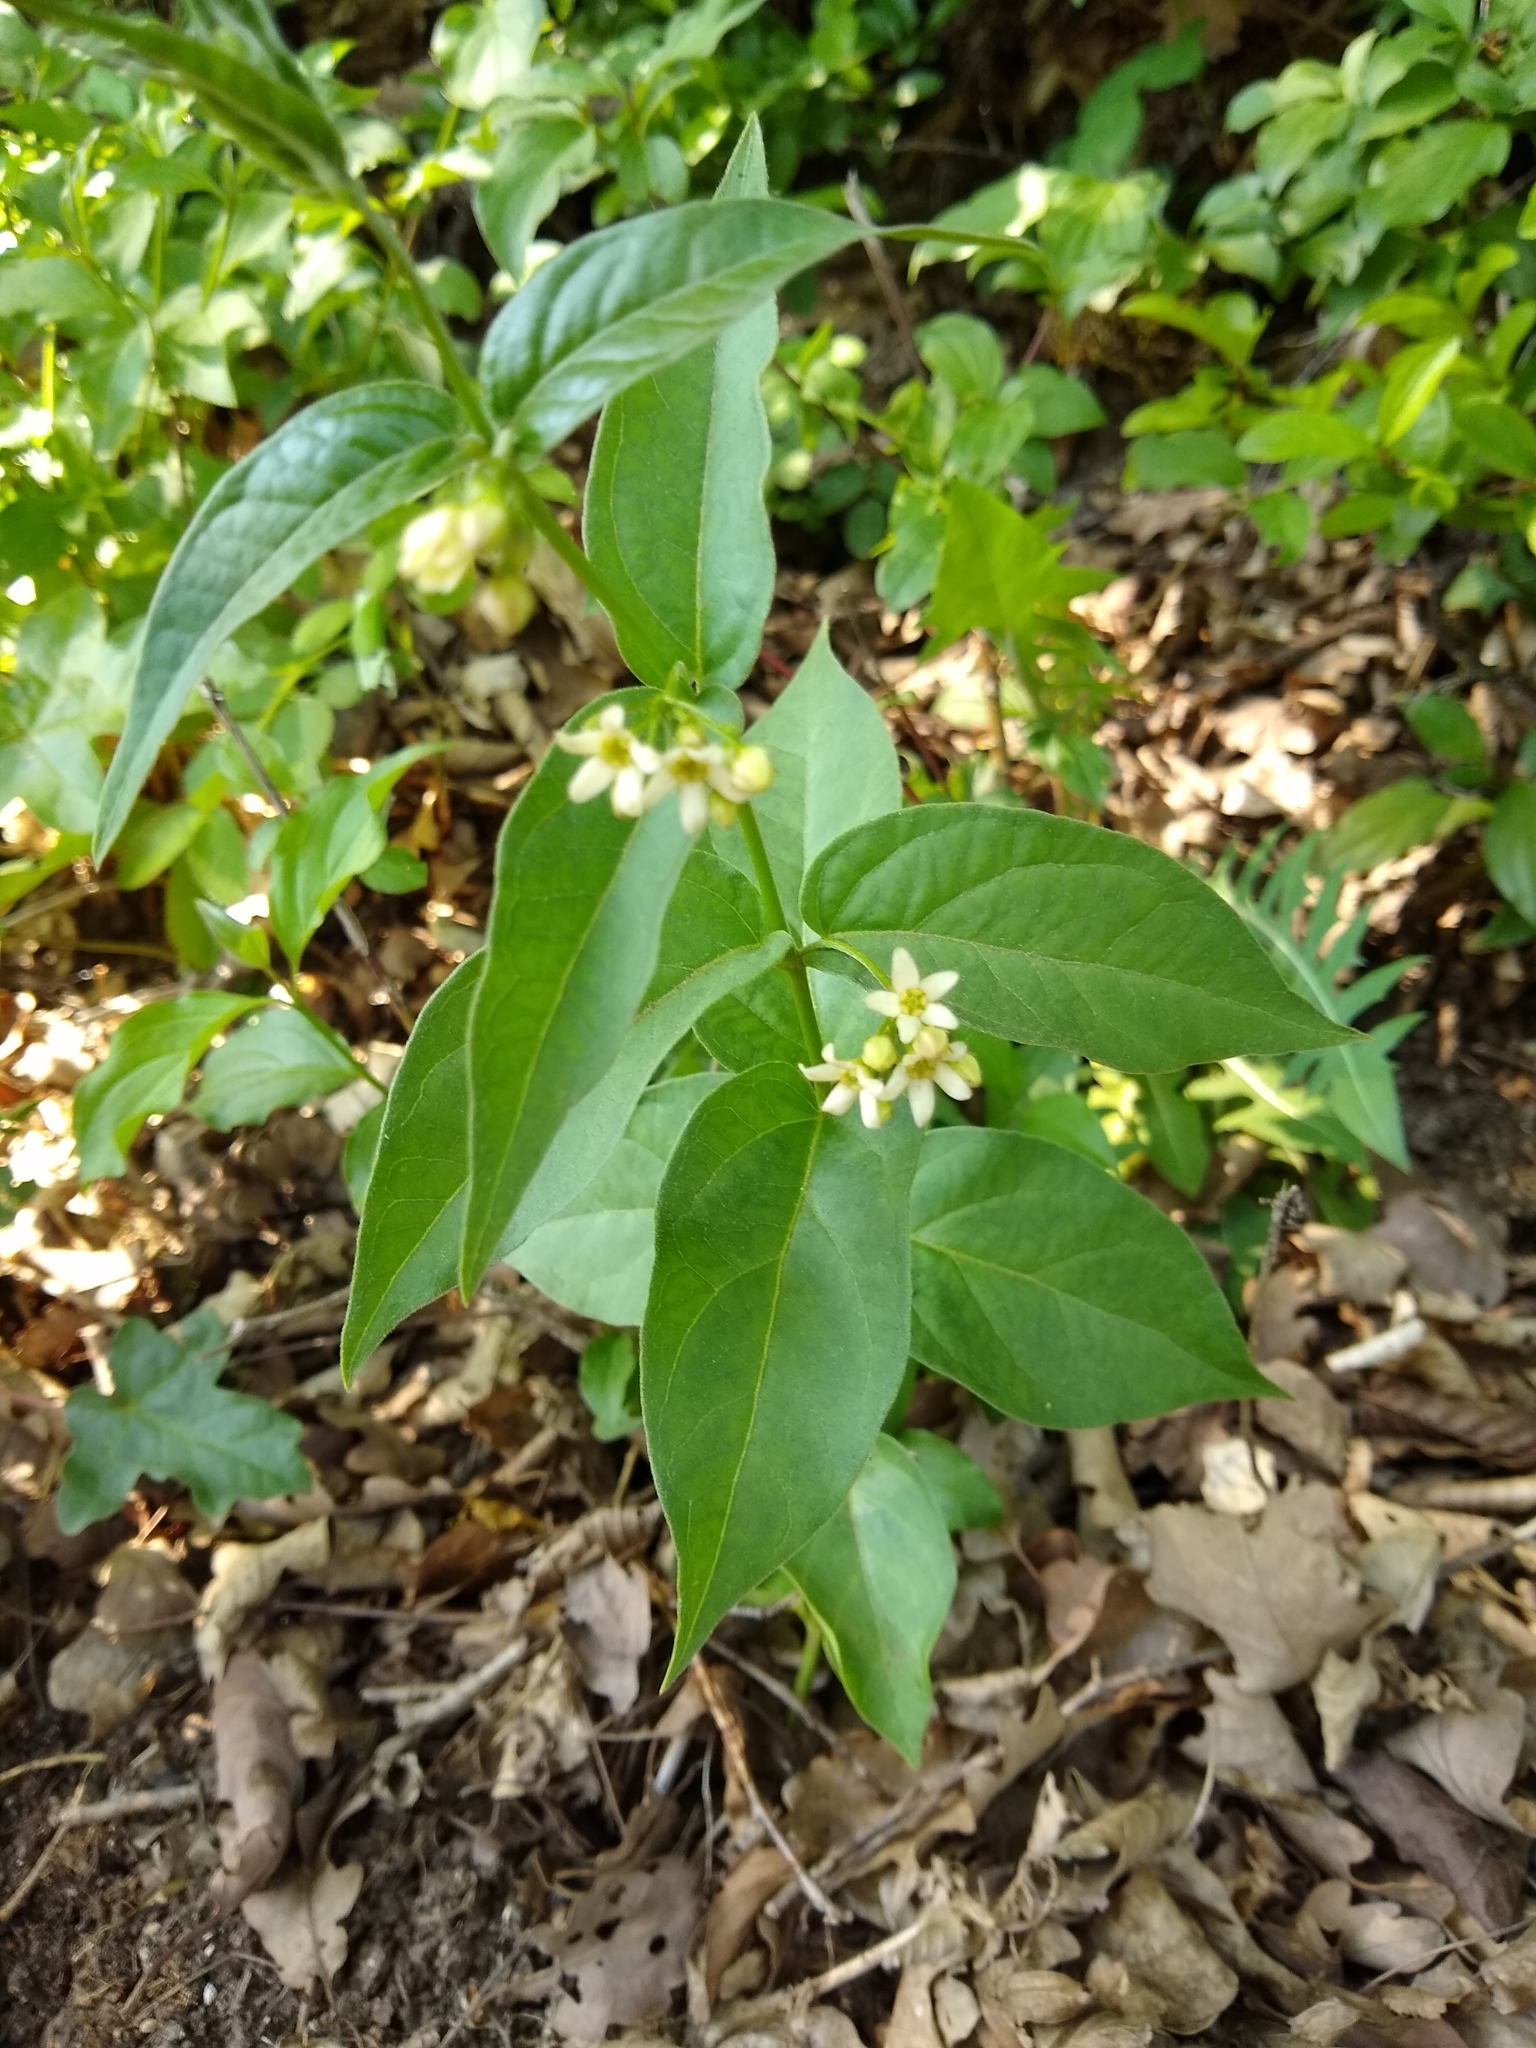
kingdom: Plantae
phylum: Tracheophyta
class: Magnoliopsida
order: Gentianales
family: Apocynaceae
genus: Vincetoxicum
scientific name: Vincetoxicum hirundinaria
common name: White swallowwort
